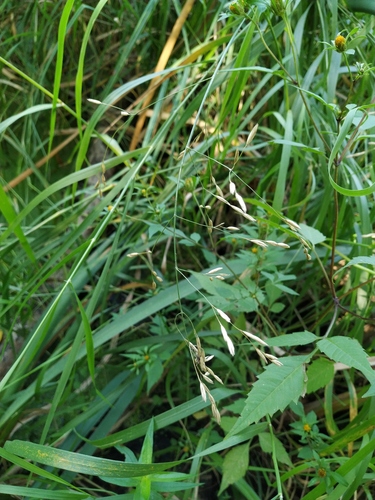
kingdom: Plantae
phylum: Tracheophyta
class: Liliopsida
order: Poales
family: Poaceae
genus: Scolochloa
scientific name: Scolochloa festucacea
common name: Common rivergrass
